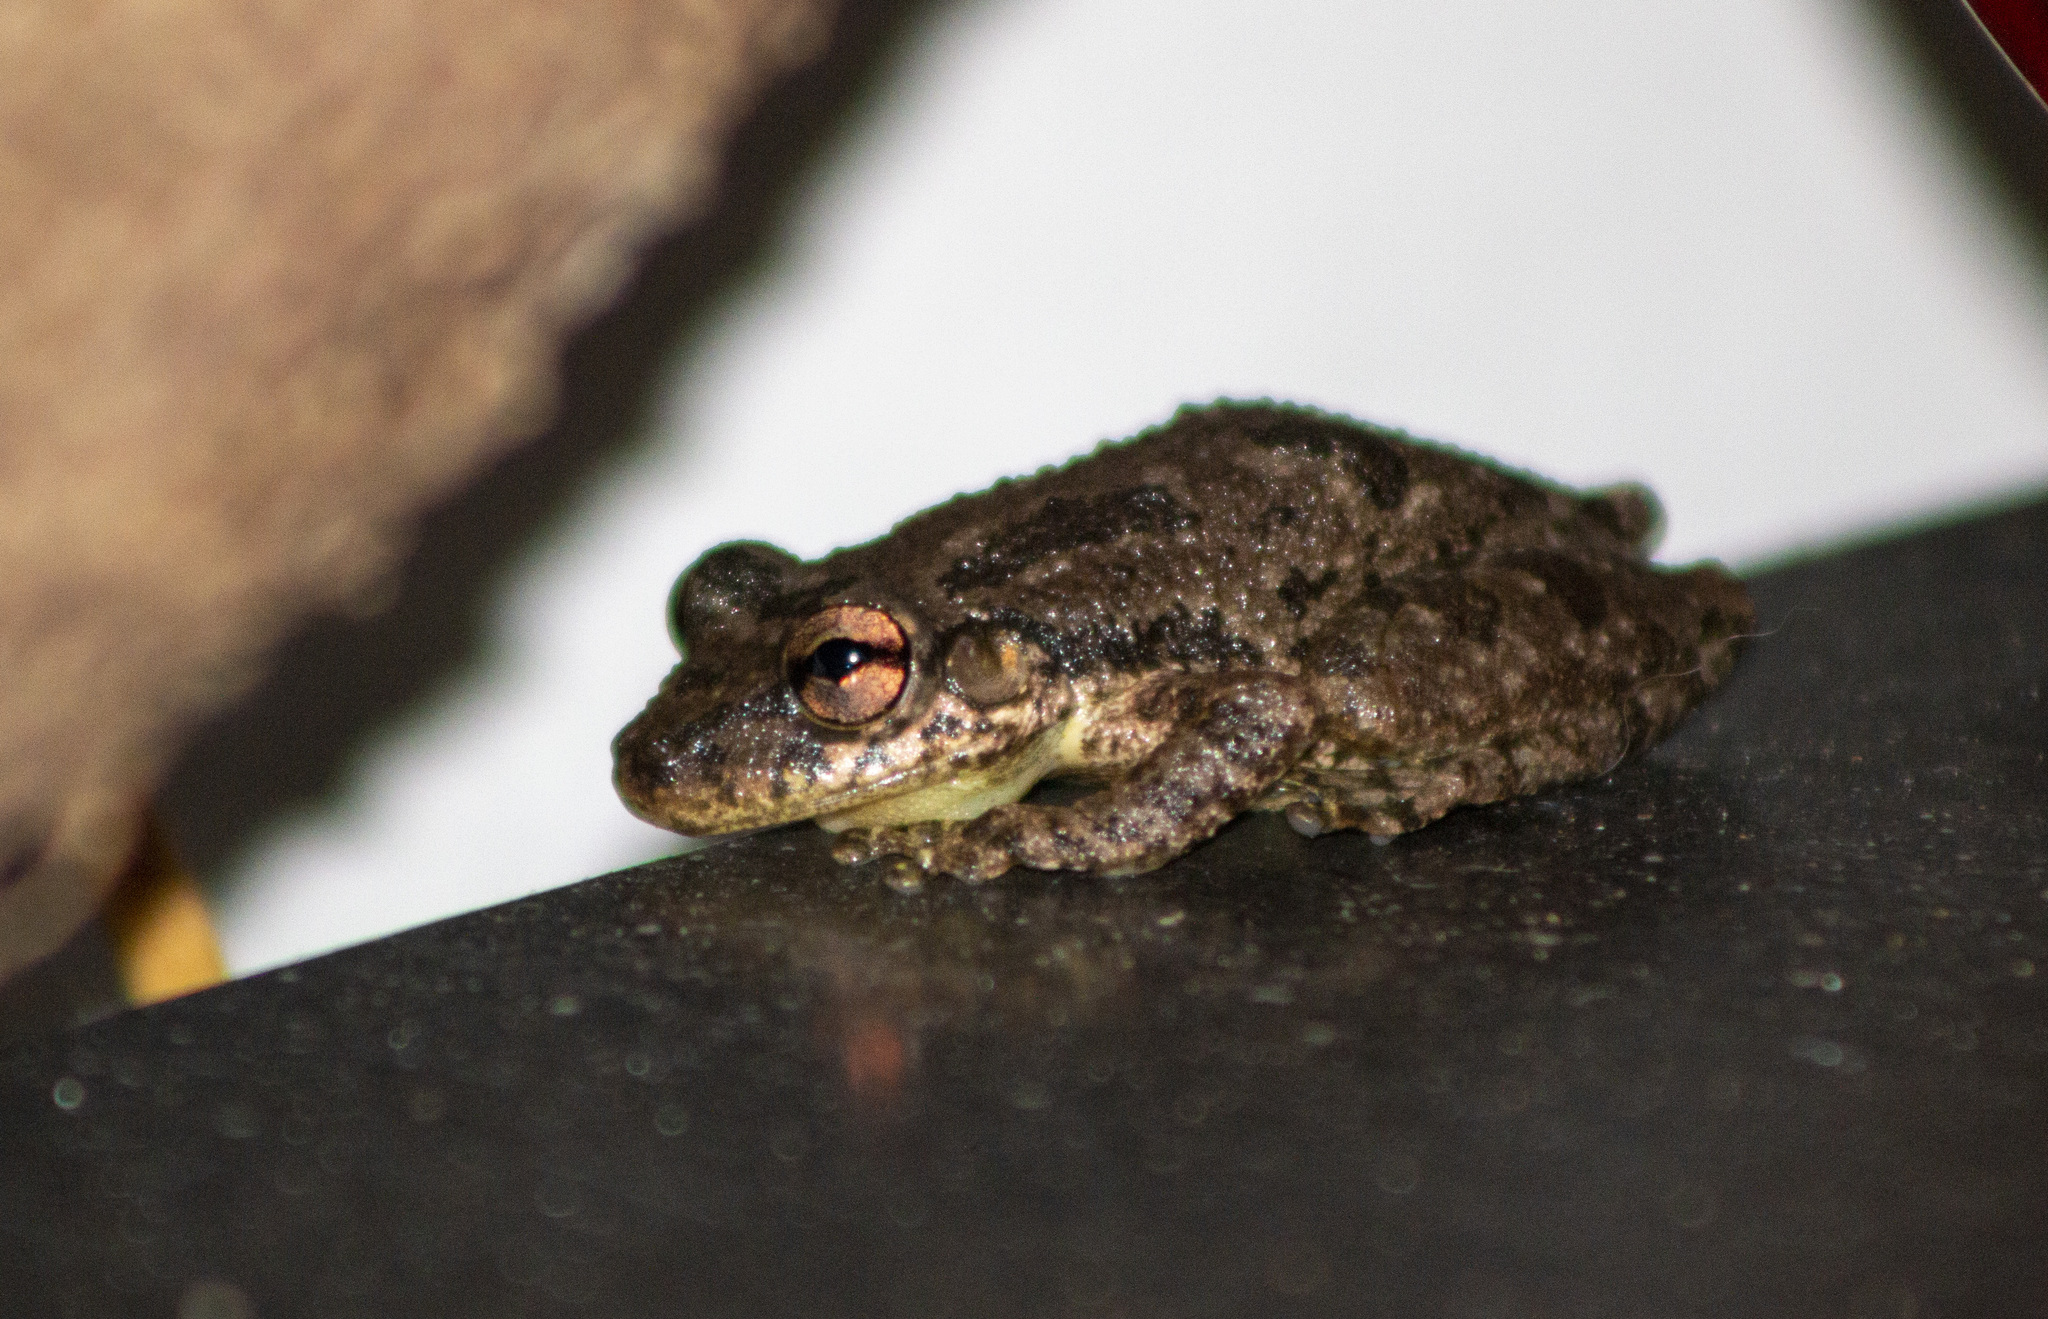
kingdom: Animalia
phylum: Chordata
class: Amphibia
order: Anura
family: Hylidae
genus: Scinax
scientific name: Scinax x-signatus
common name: Venezuela snouted treefrog
